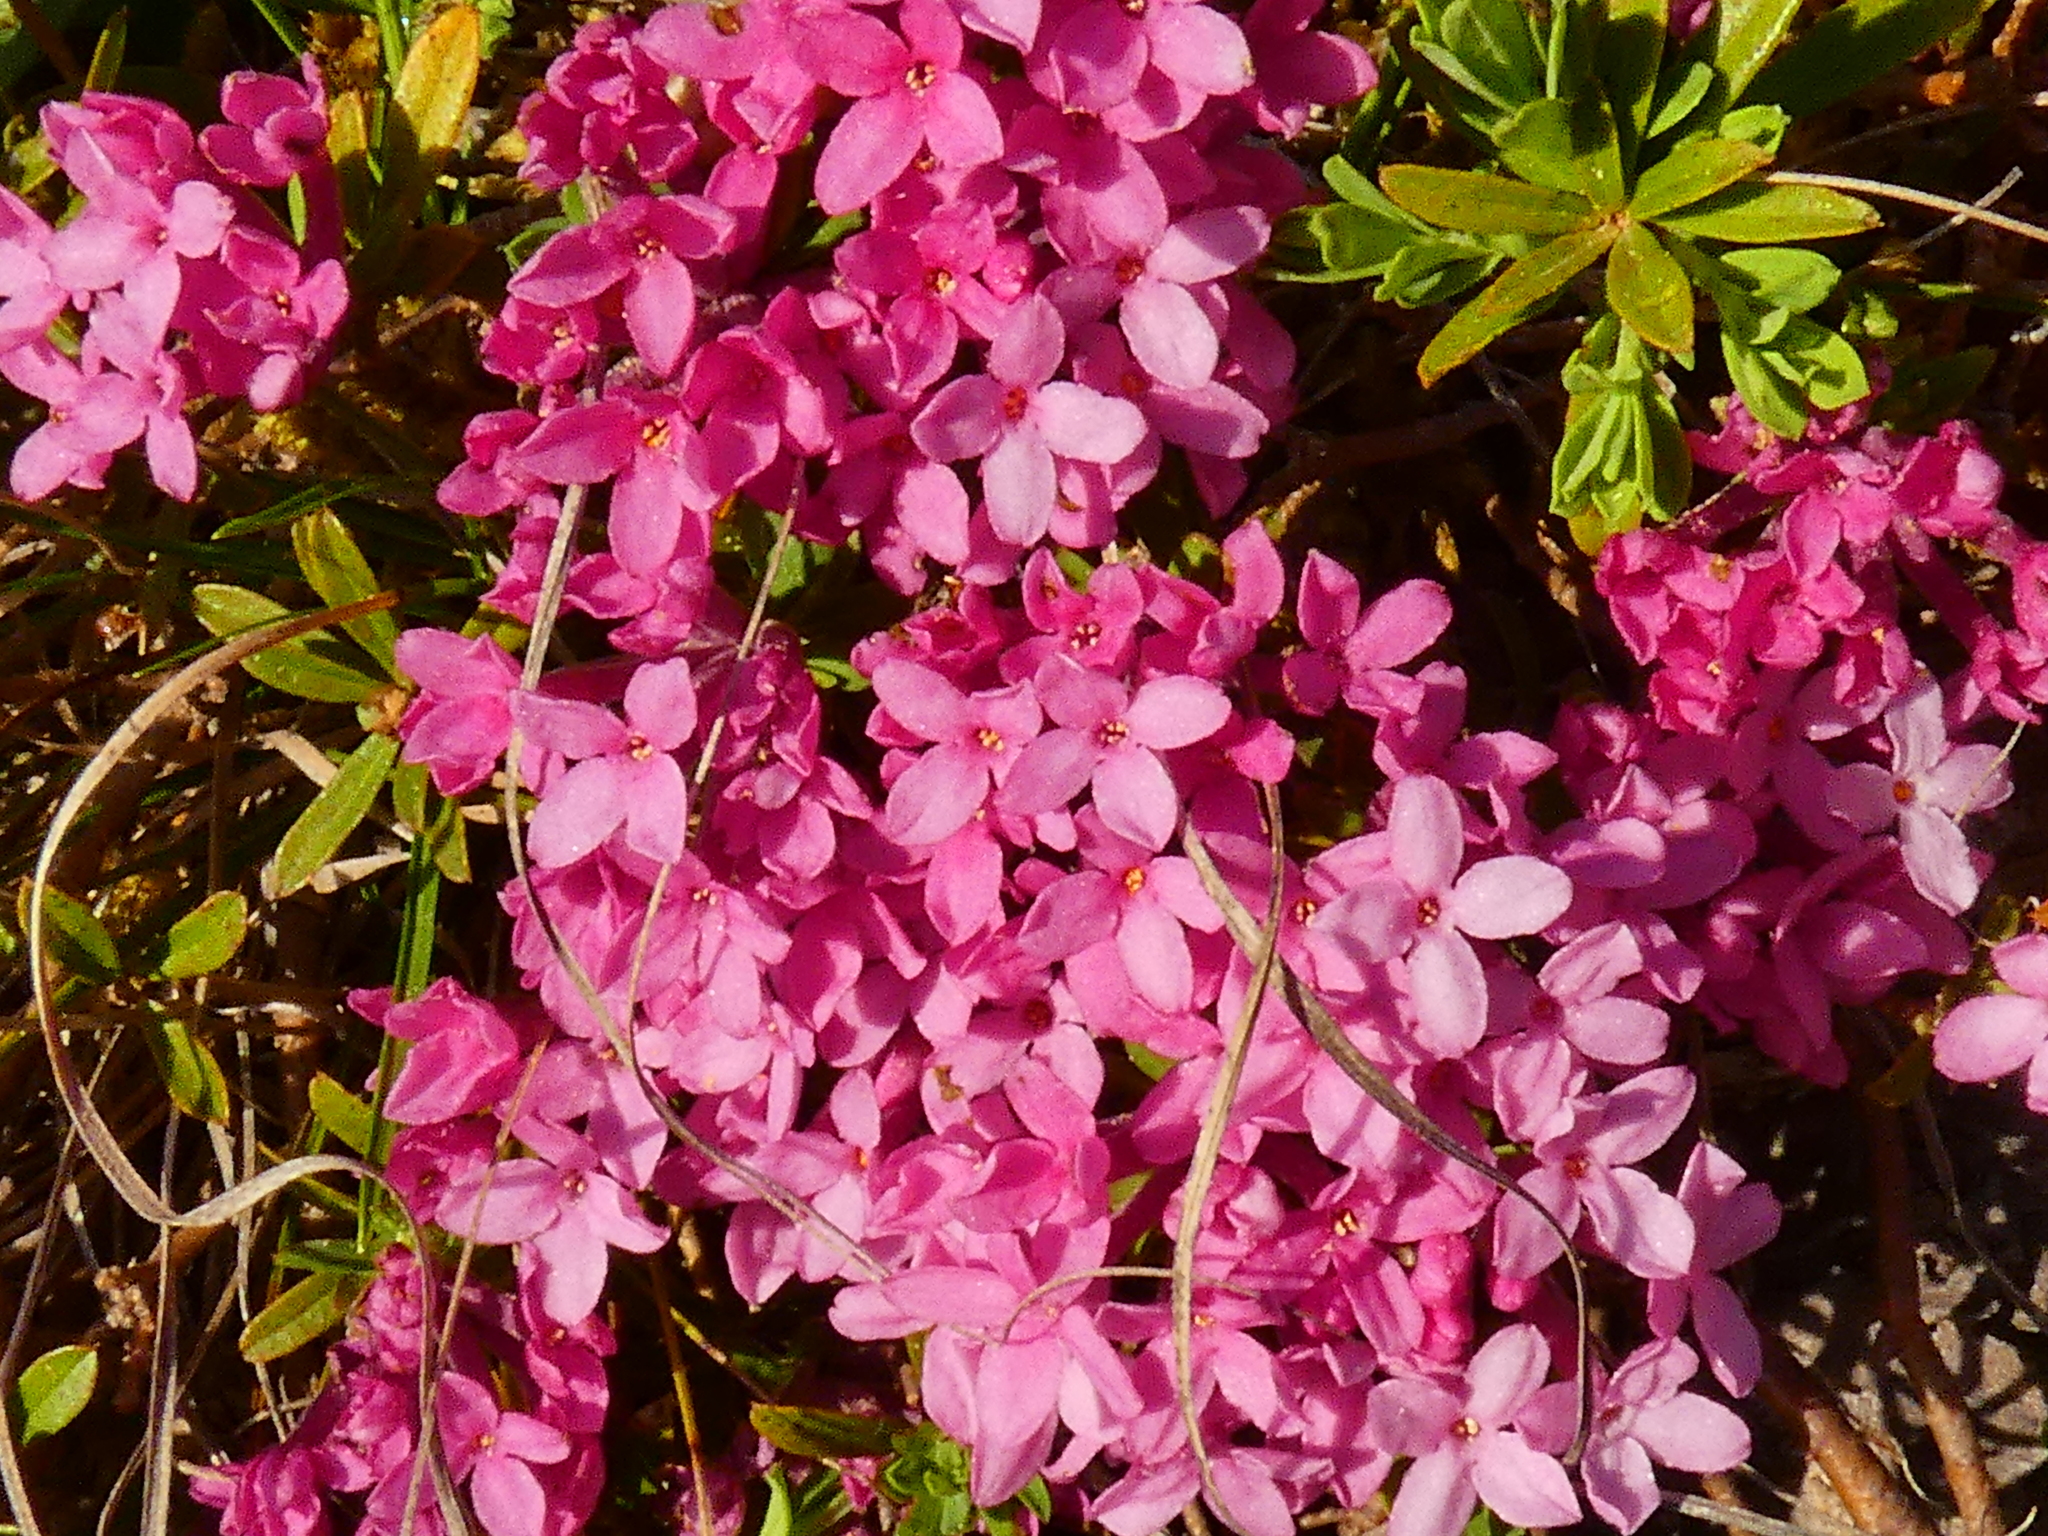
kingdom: Plantae
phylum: Tracheophyta
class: Magnoliopsida
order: Malvales
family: Thymelaeaceae
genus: Daphne
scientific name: Daphne cneorum
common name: Garland-flower
